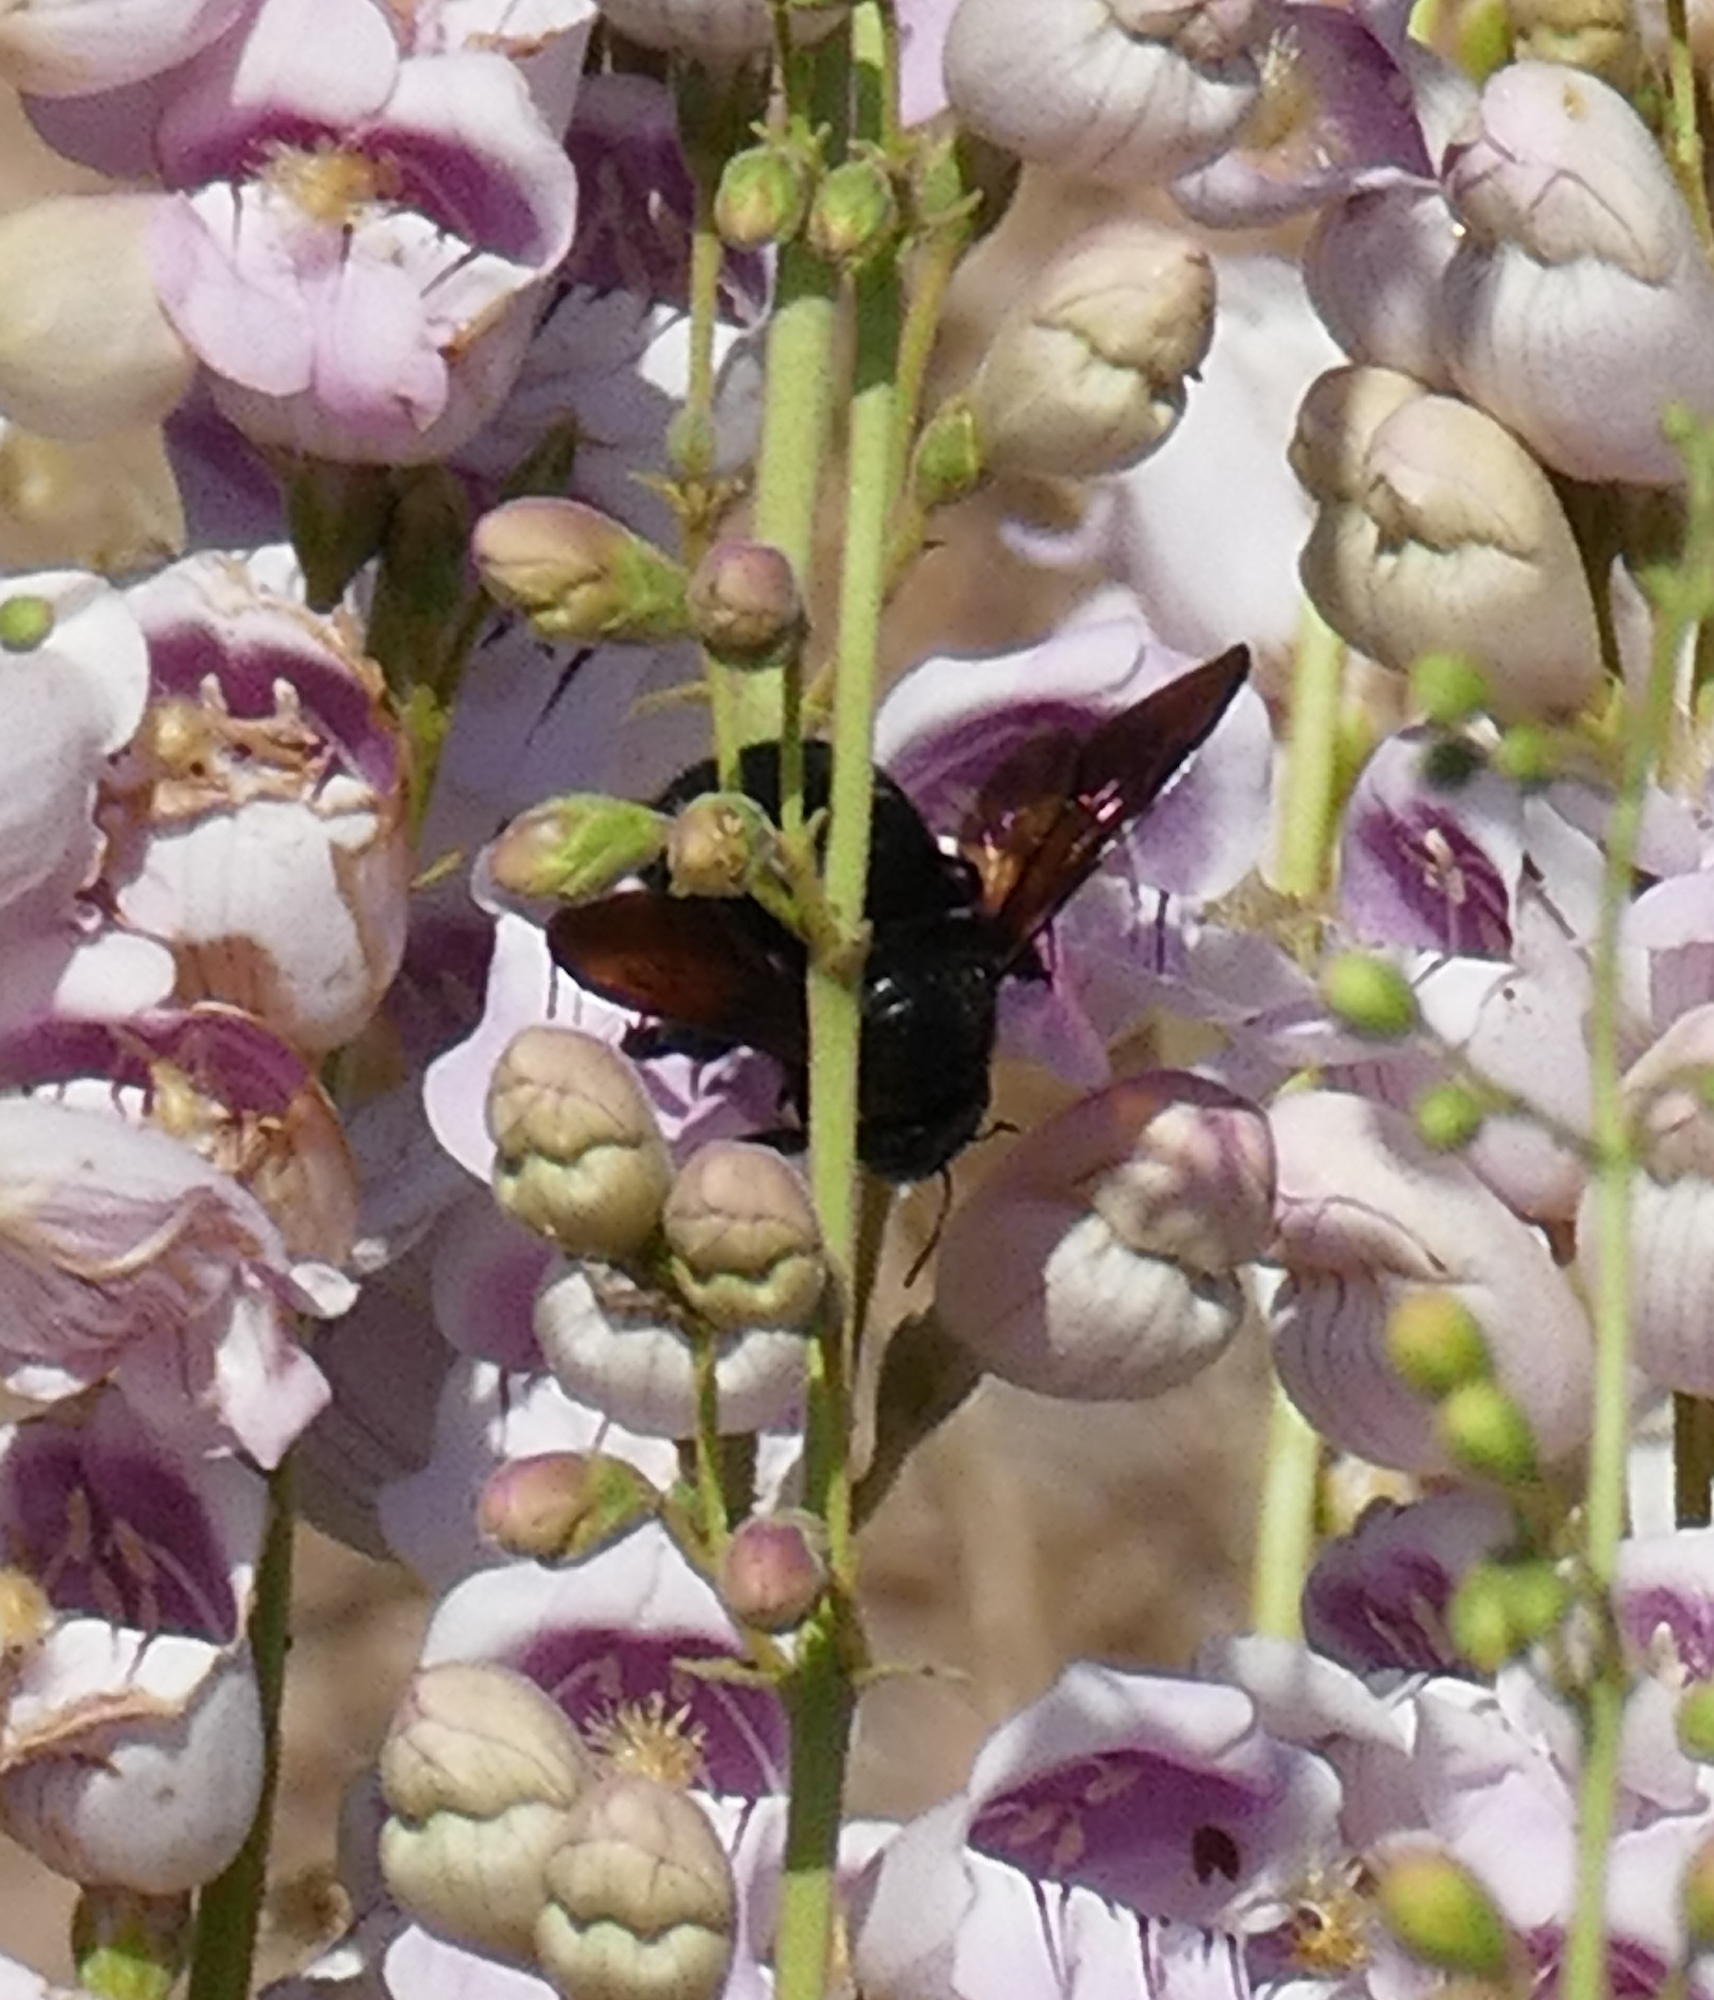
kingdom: Animalia
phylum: Arthropoda
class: Insecta
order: Hymenoptera
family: Apidae
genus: Xylocopa
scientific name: Xylocopa sonorina
